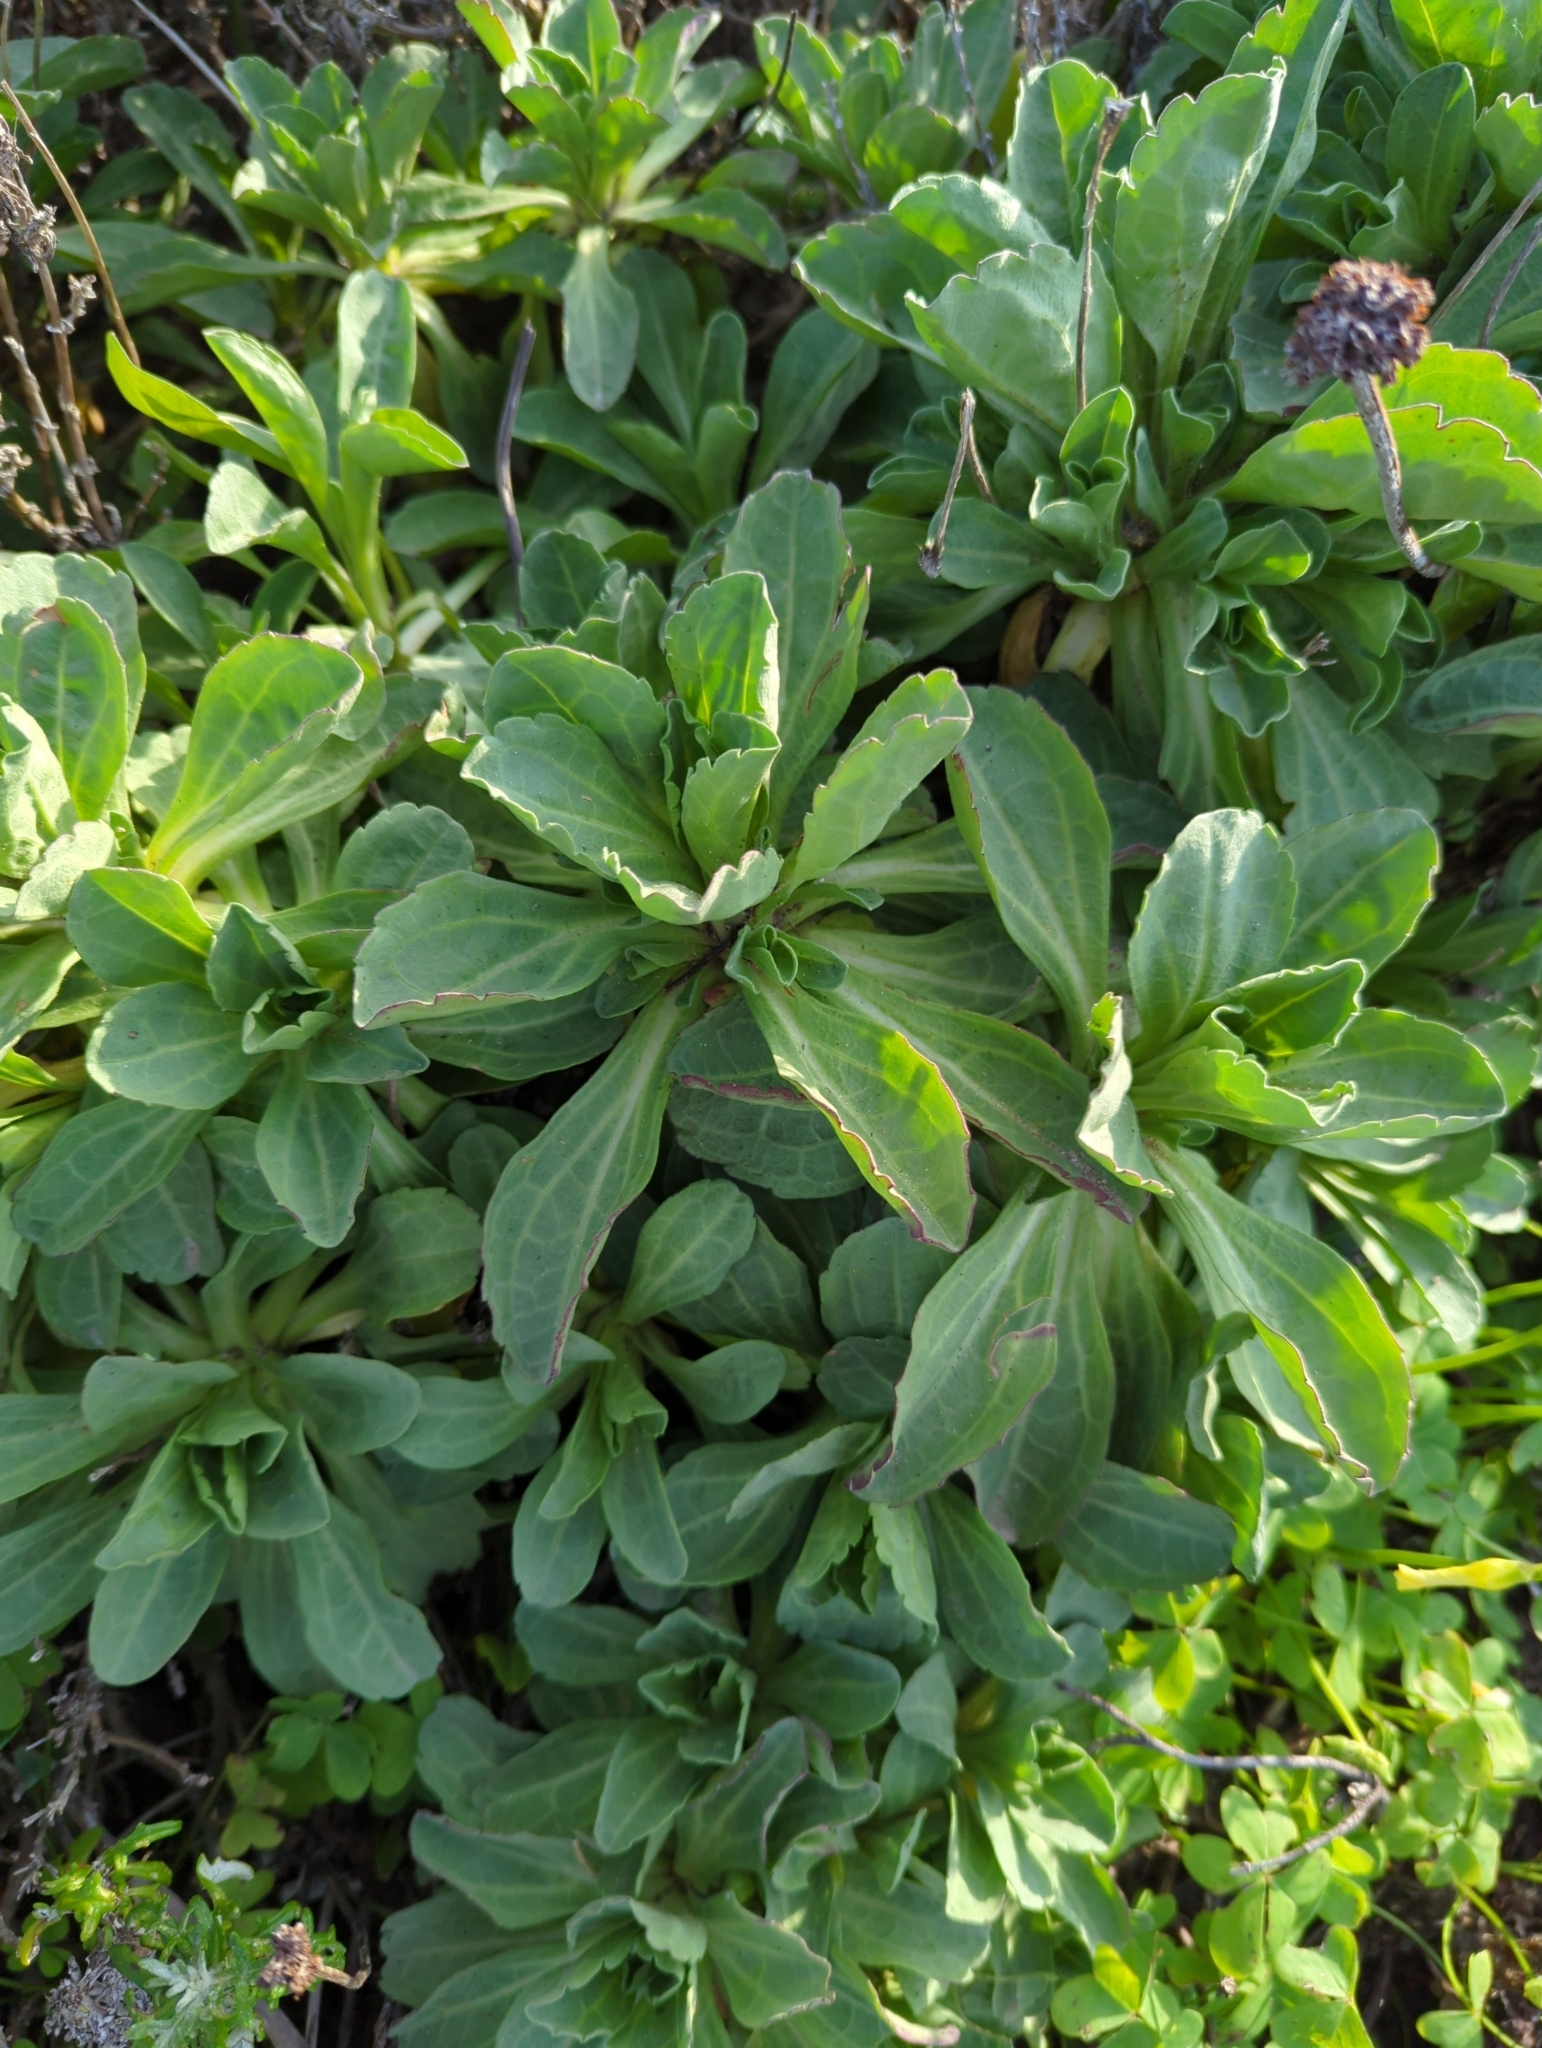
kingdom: Plantae
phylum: Tracheophyta
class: Magnoliopsida
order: Asterales
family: Asteraceae
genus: Erigeron
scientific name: Erigeron glaucus
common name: Seaside daisy
